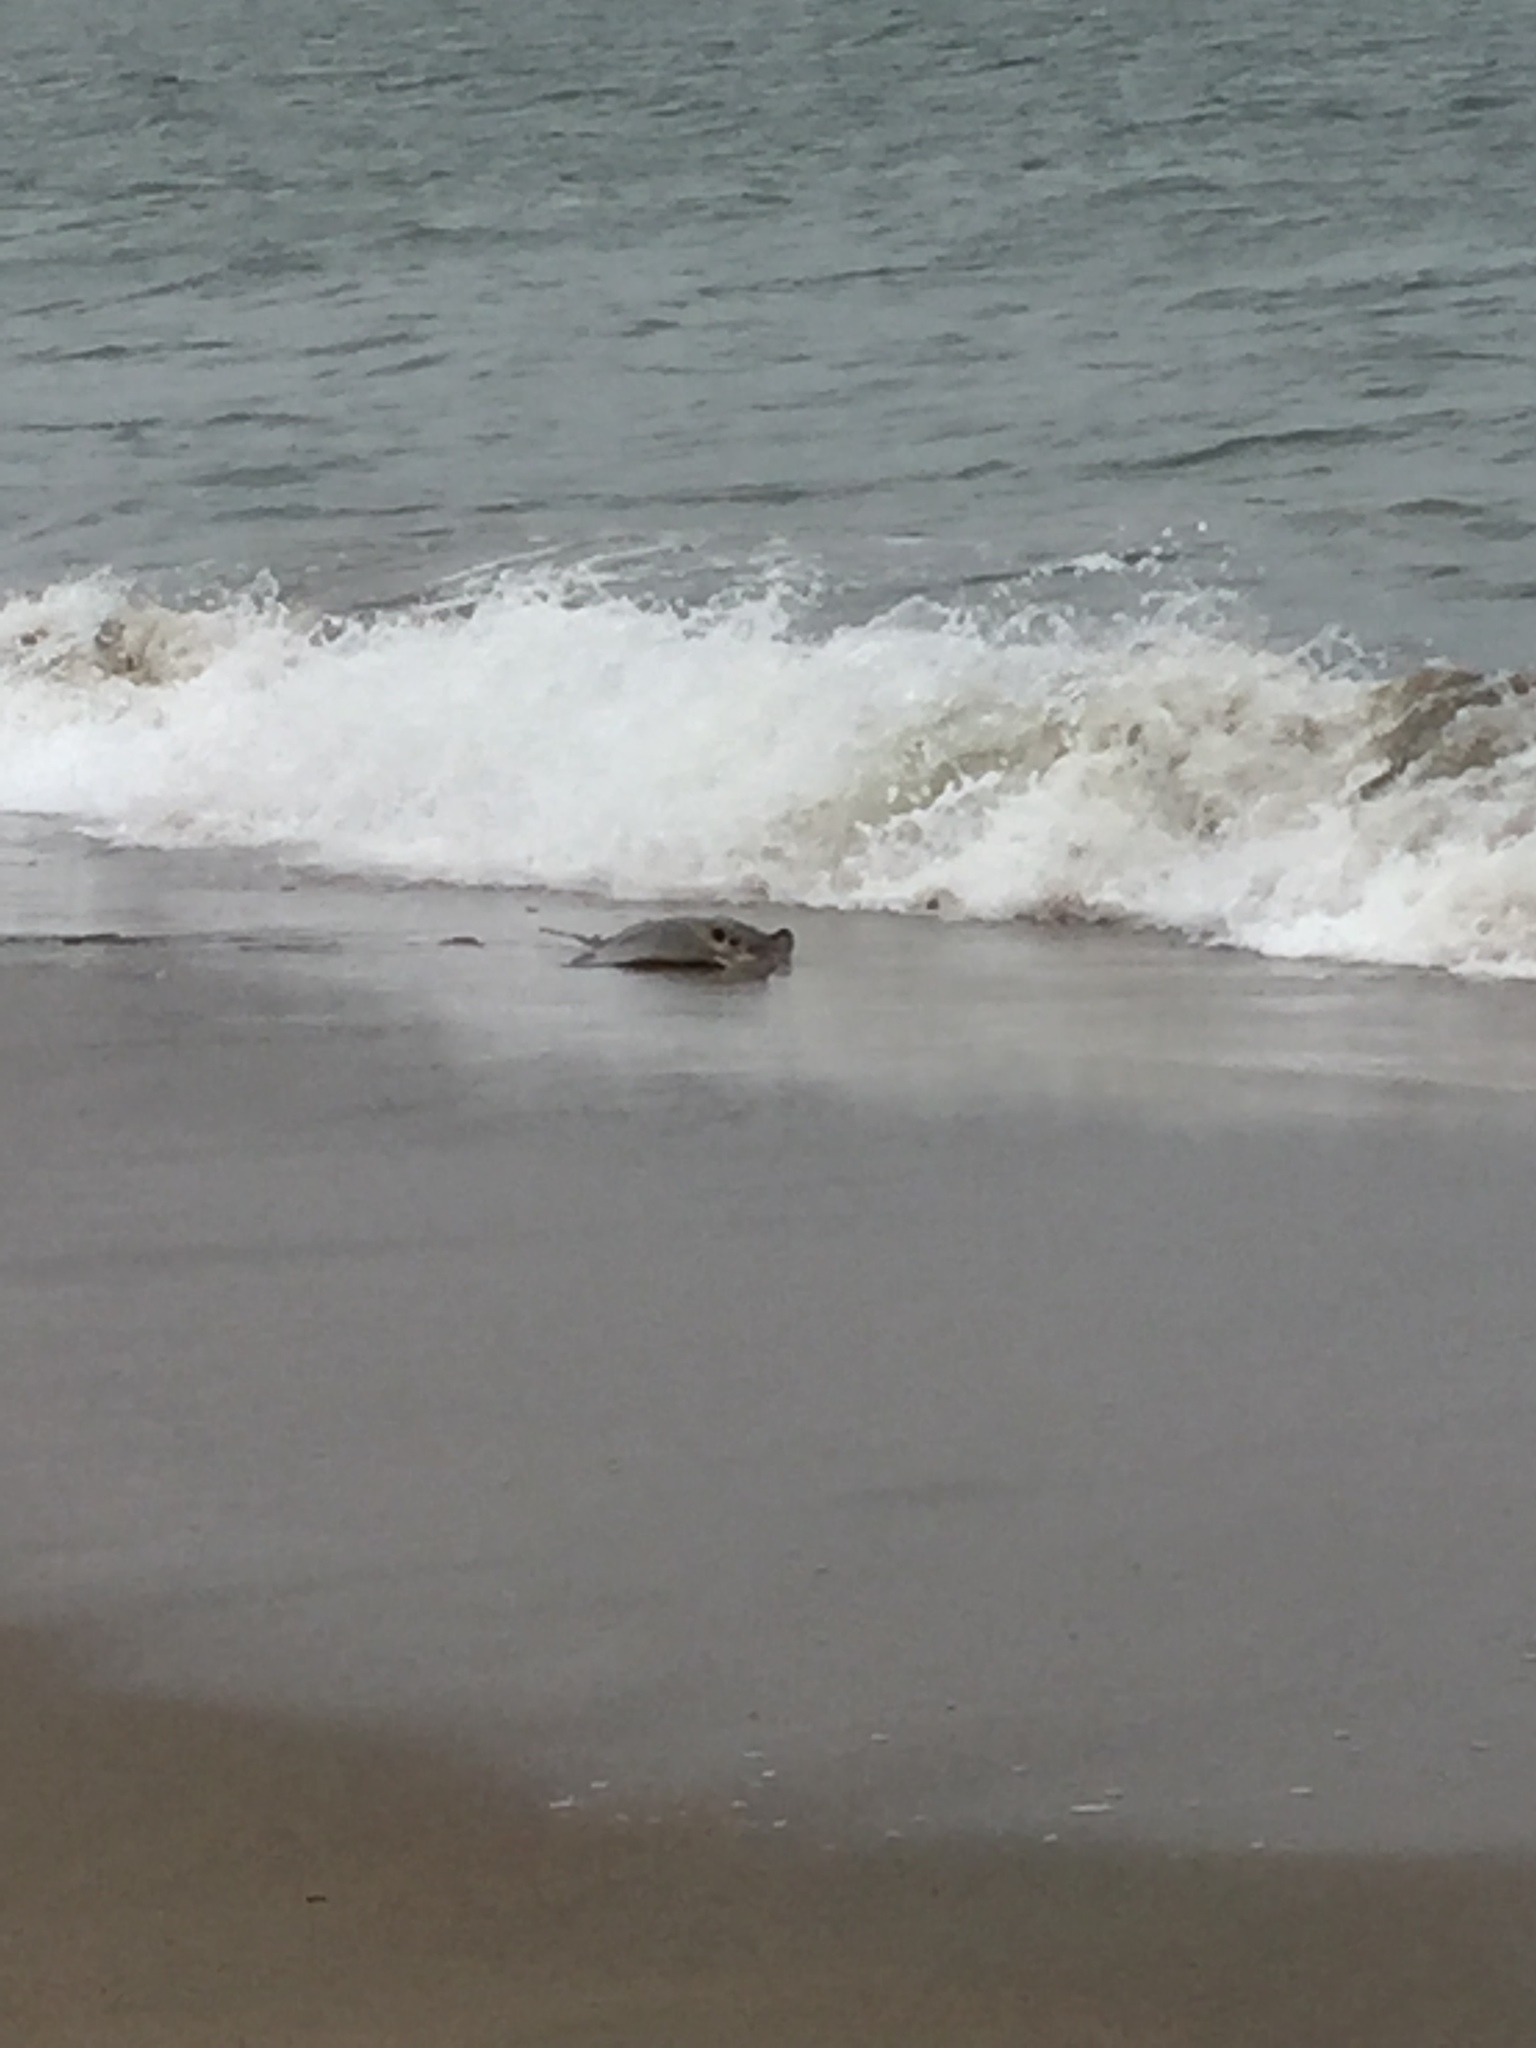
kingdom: Animalia
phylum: Chordata
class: Elasmobranchii
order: Myliobatiformes
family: Myliobatidae
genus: Myliobatis
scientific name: Myliobatis californica
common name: Bat ray
